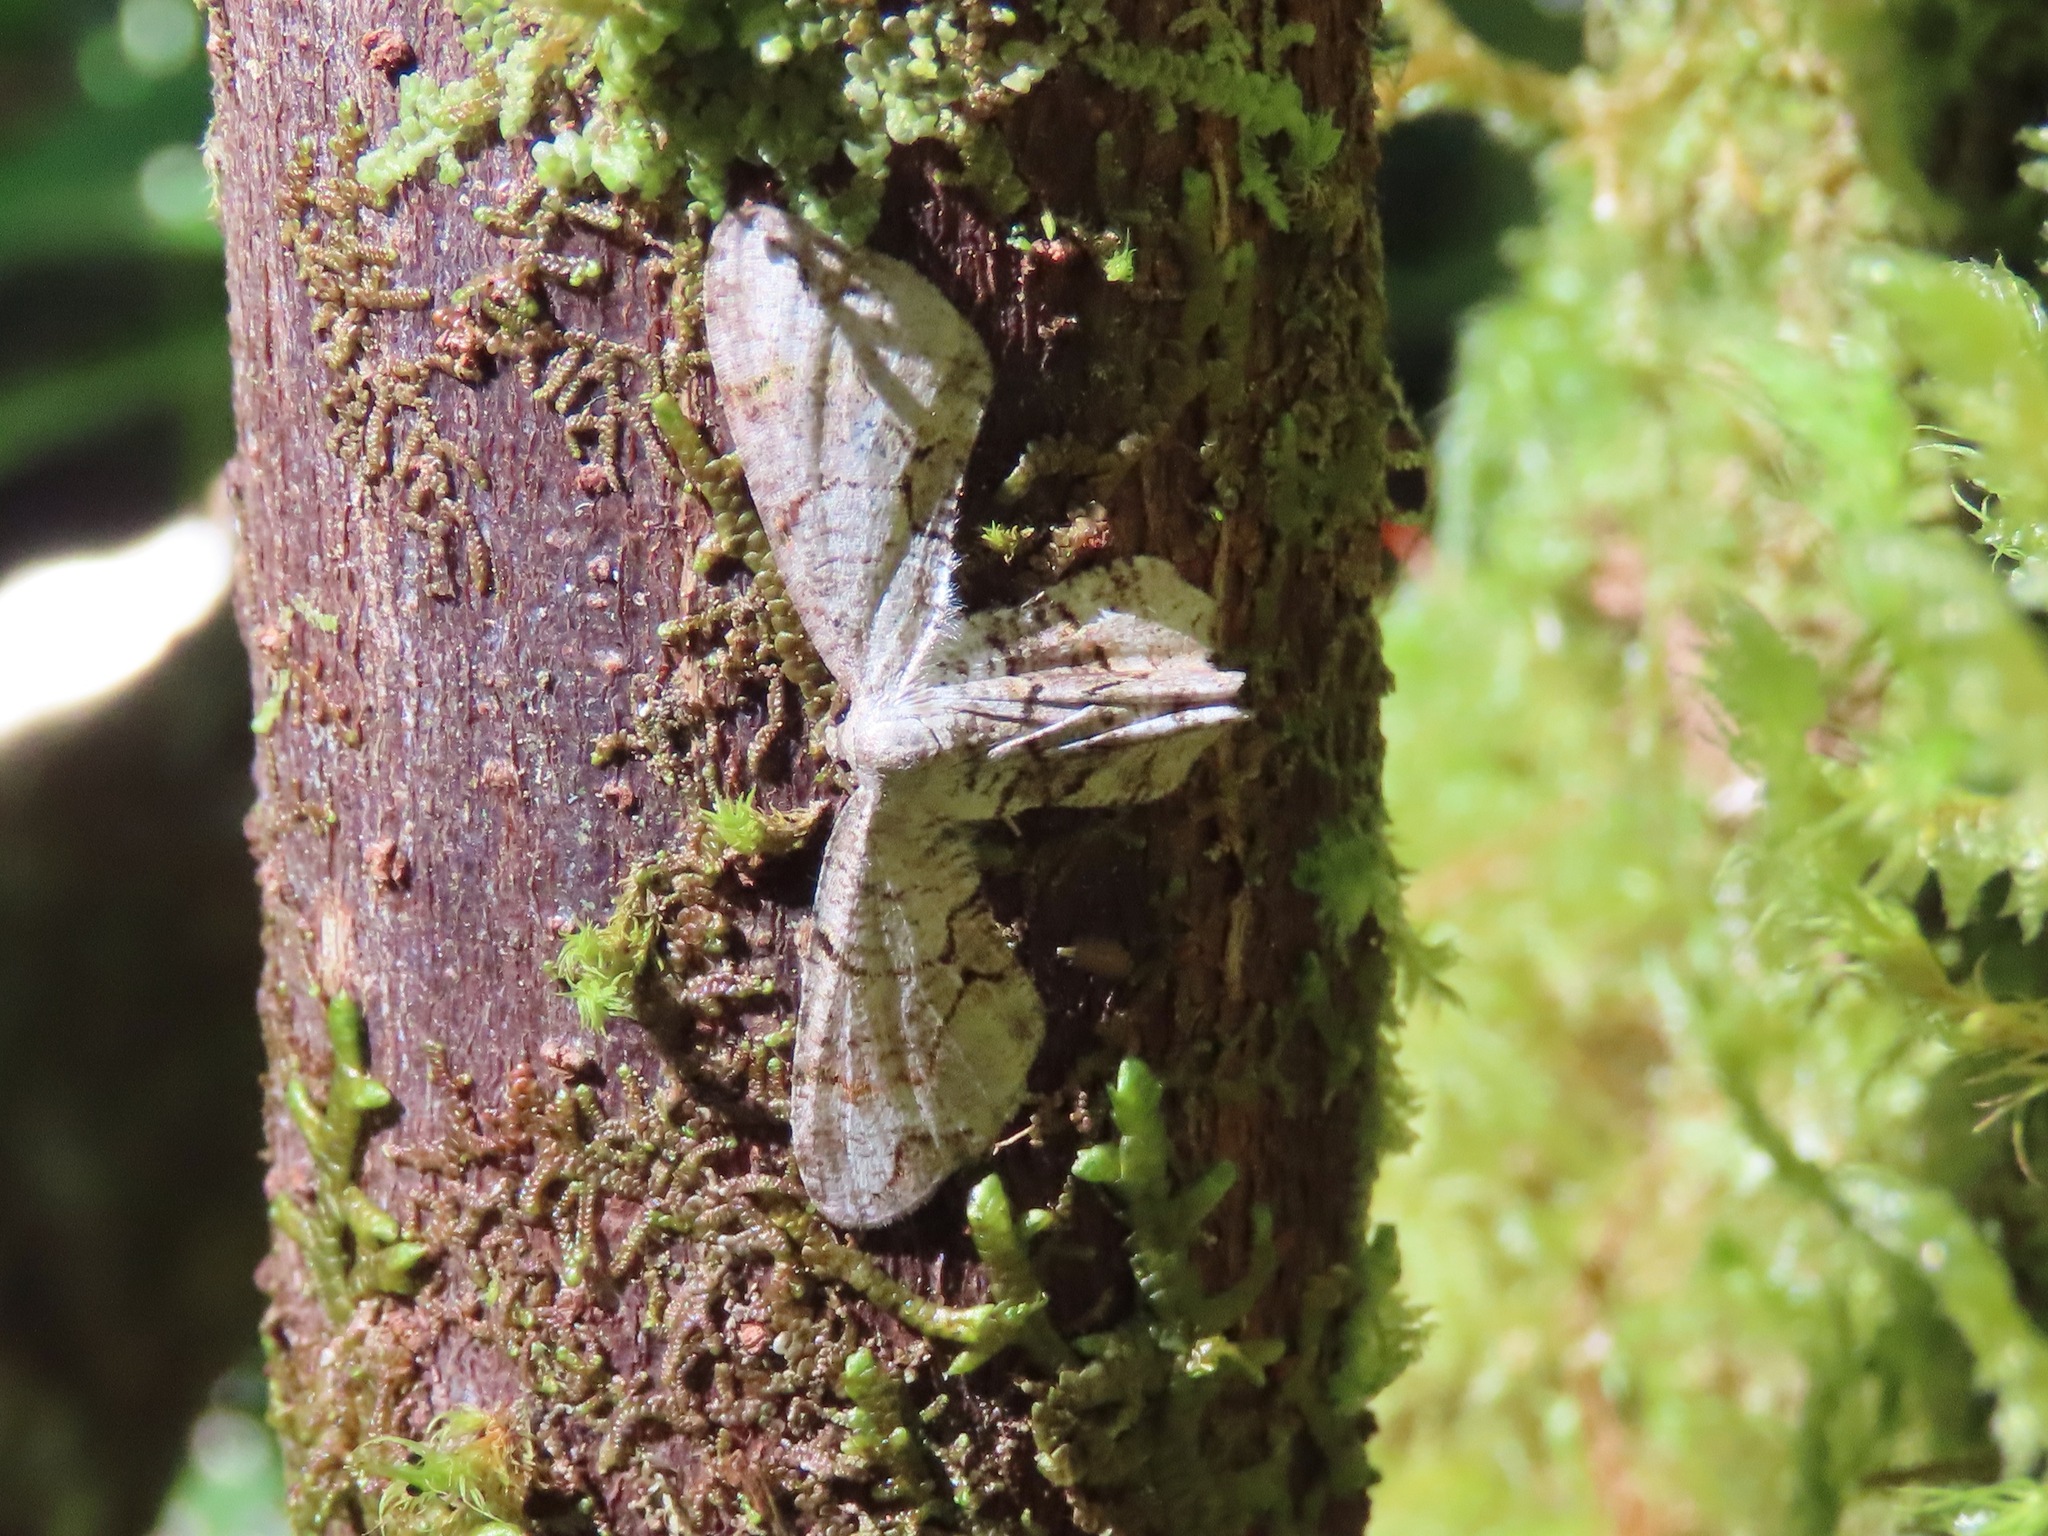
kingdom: Animalia
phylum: Arthropoda
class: Insecta
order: Lepidoptera
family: Uraniidae
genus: Epiplema
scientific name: Epiplema Callizzia amorata
